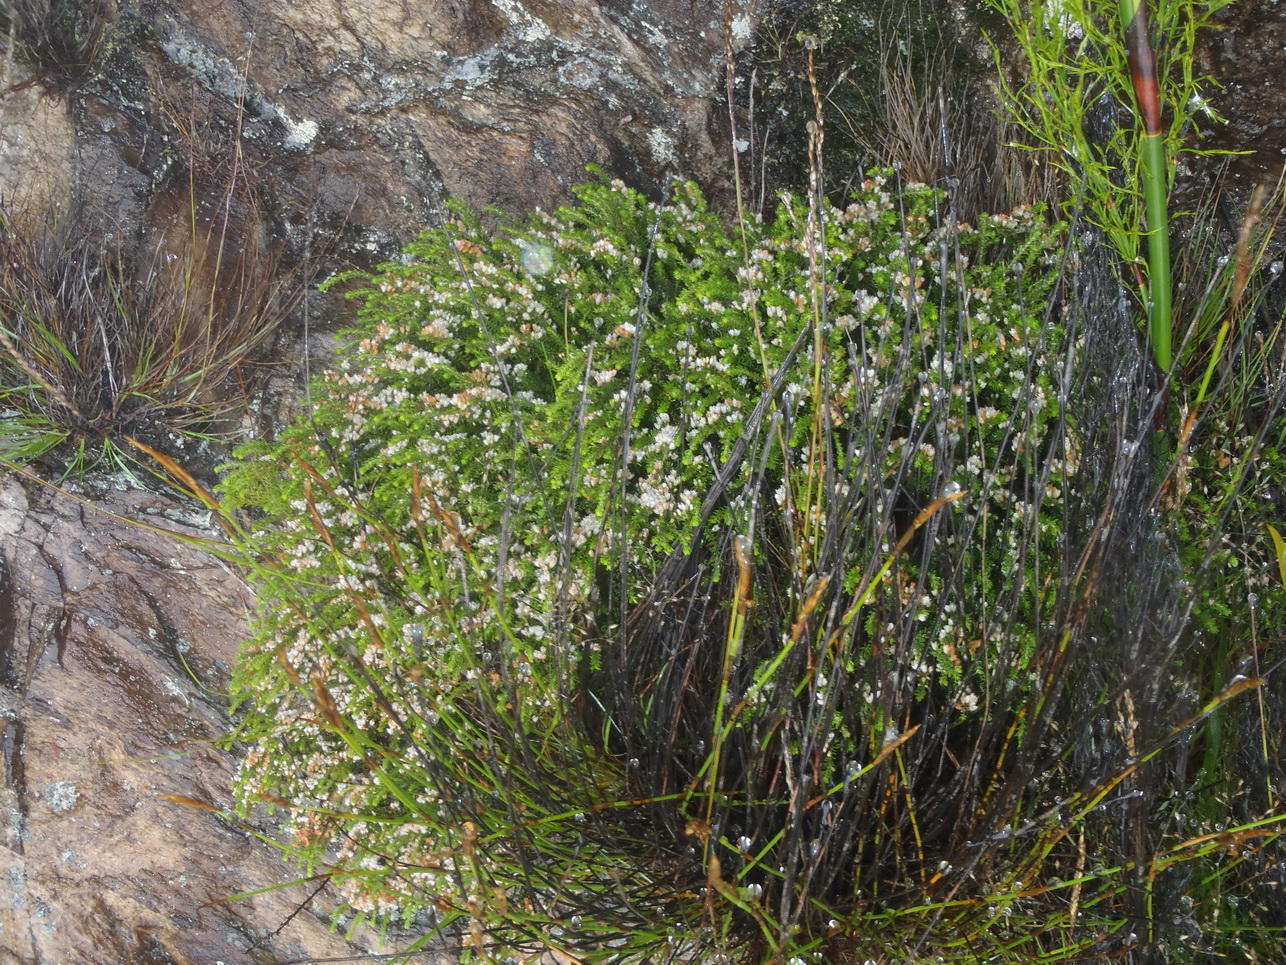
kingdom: Plantae
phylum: Tracheophyta
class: Magnoliopsida
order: Ericales
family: Ericaceae
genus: Erica
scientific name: Erica tenuis
